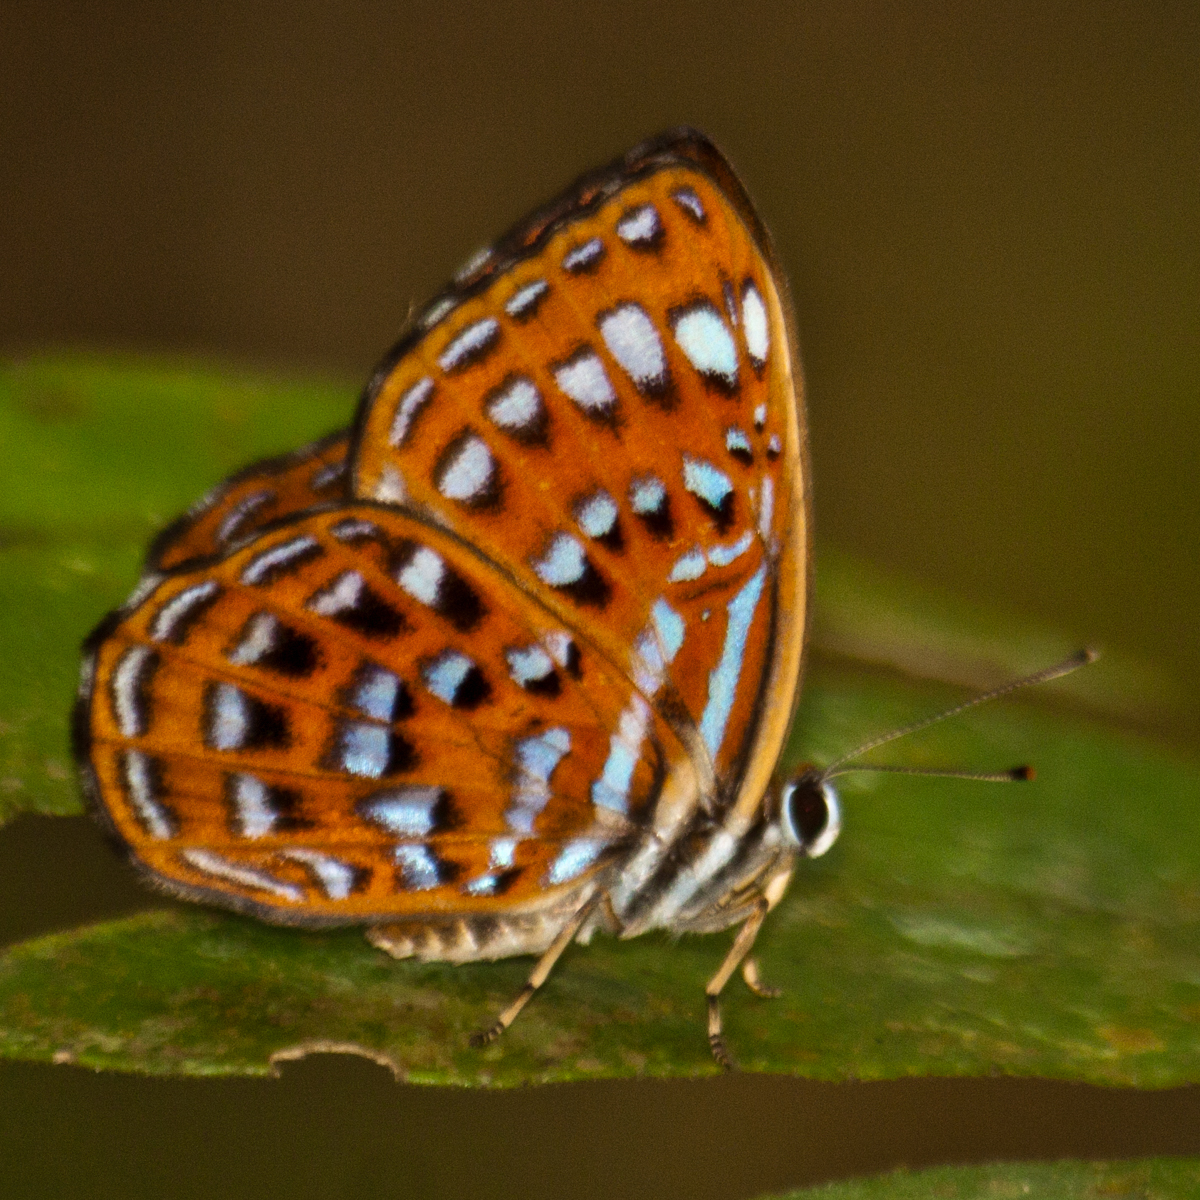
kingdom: Animalia
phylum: Arthropoda
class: Insecta
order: Lepidoptera
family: Riodinidae
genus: Laxita
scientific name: Laxita thuisto
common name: Lesser harlequin
